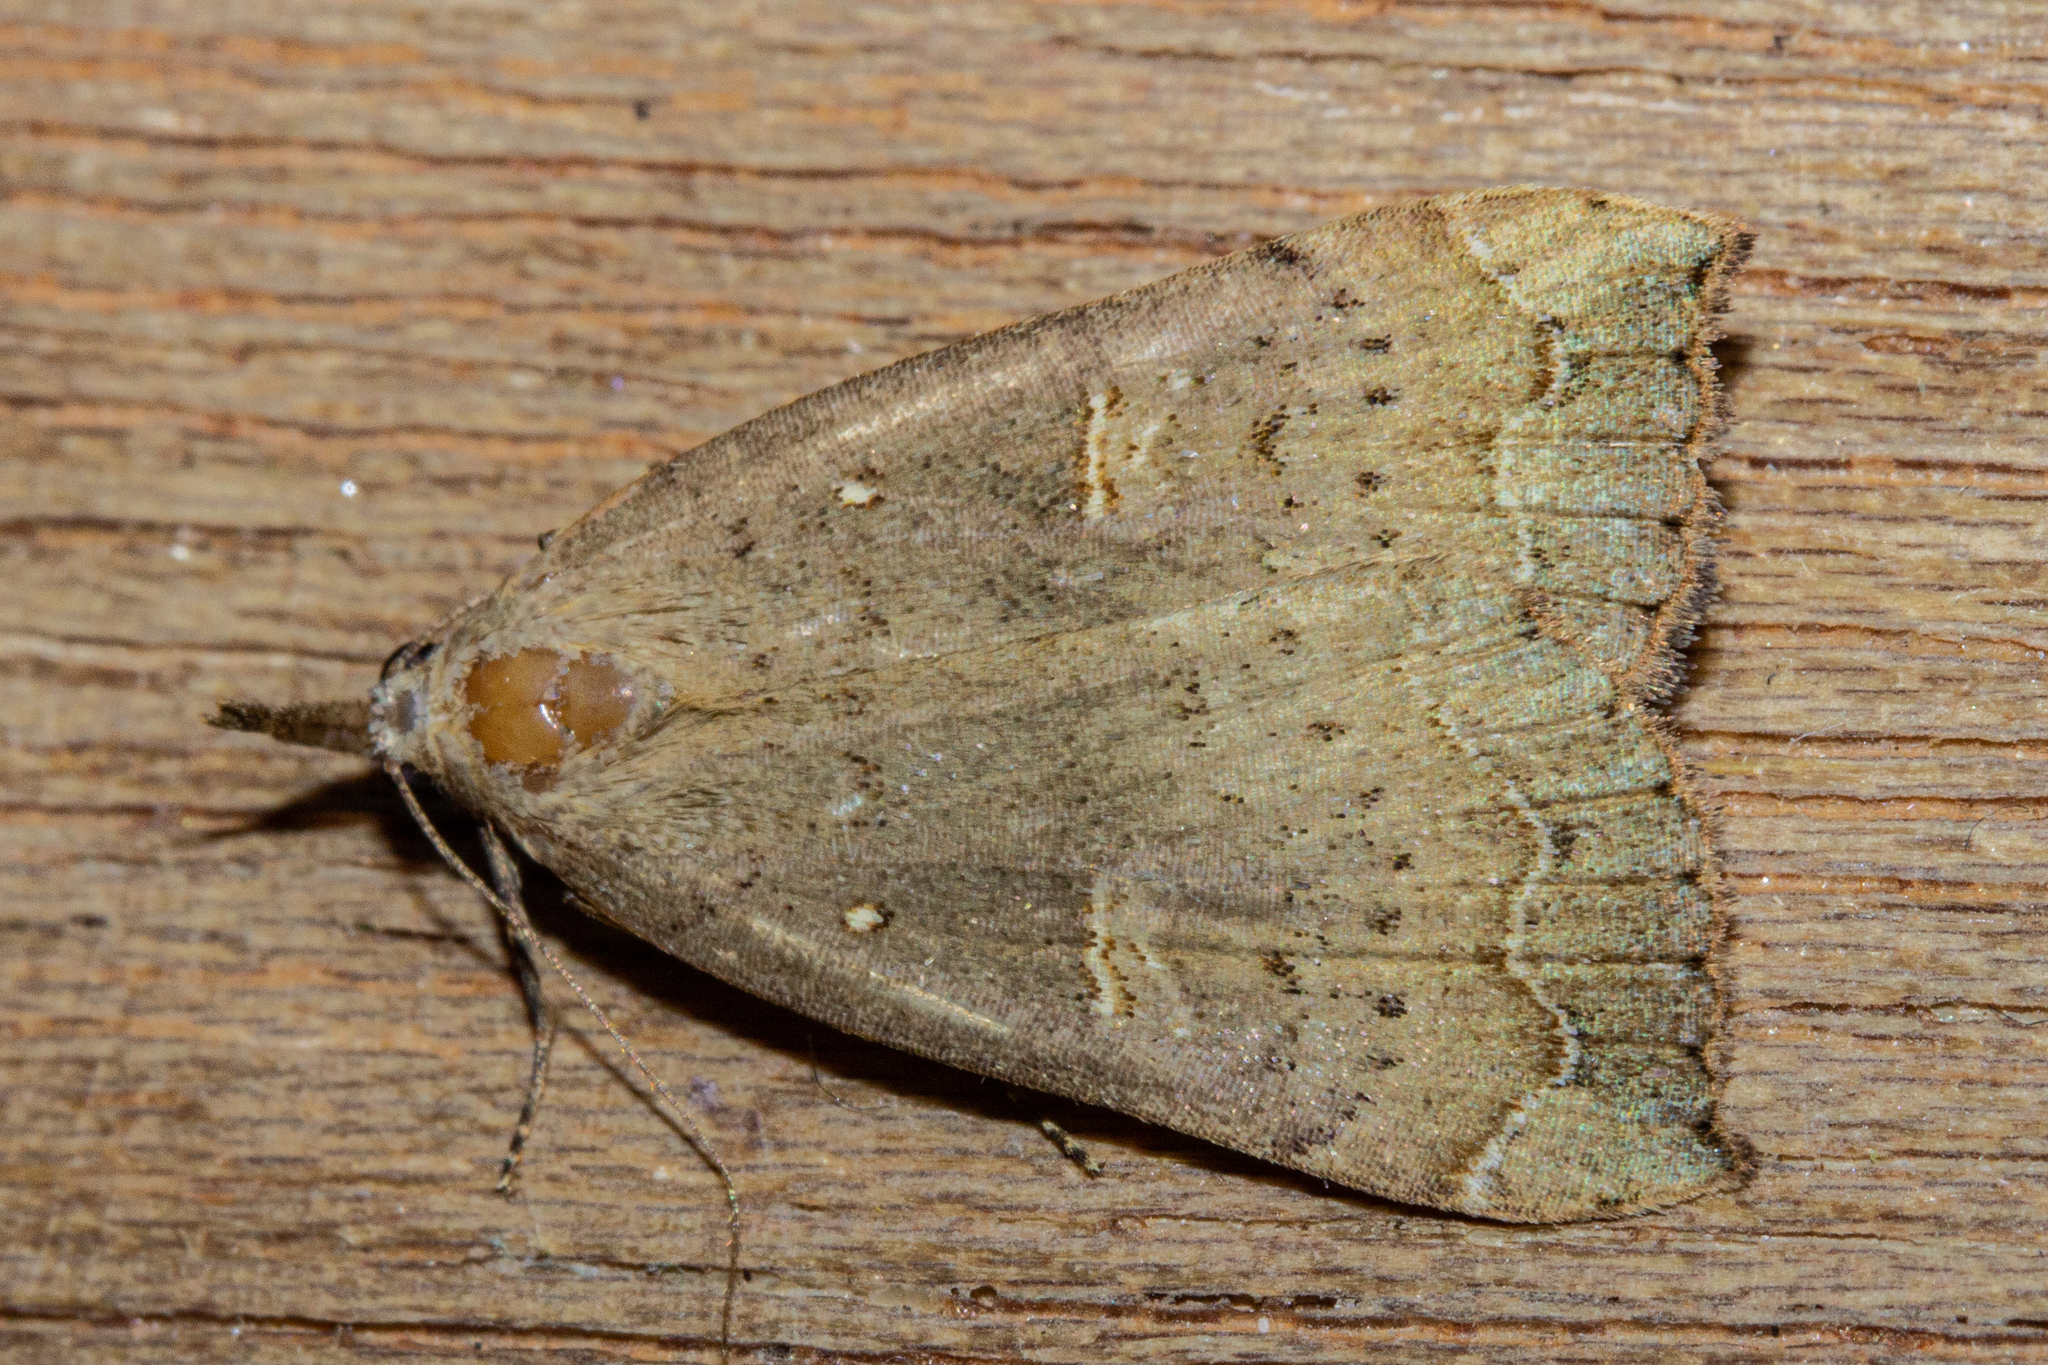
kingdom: Animalia
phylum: Arthropoda
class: Insecta
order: Lepidoptera
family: Erebidae
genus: Rhapsa
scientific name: Rhapsa scotosialis
